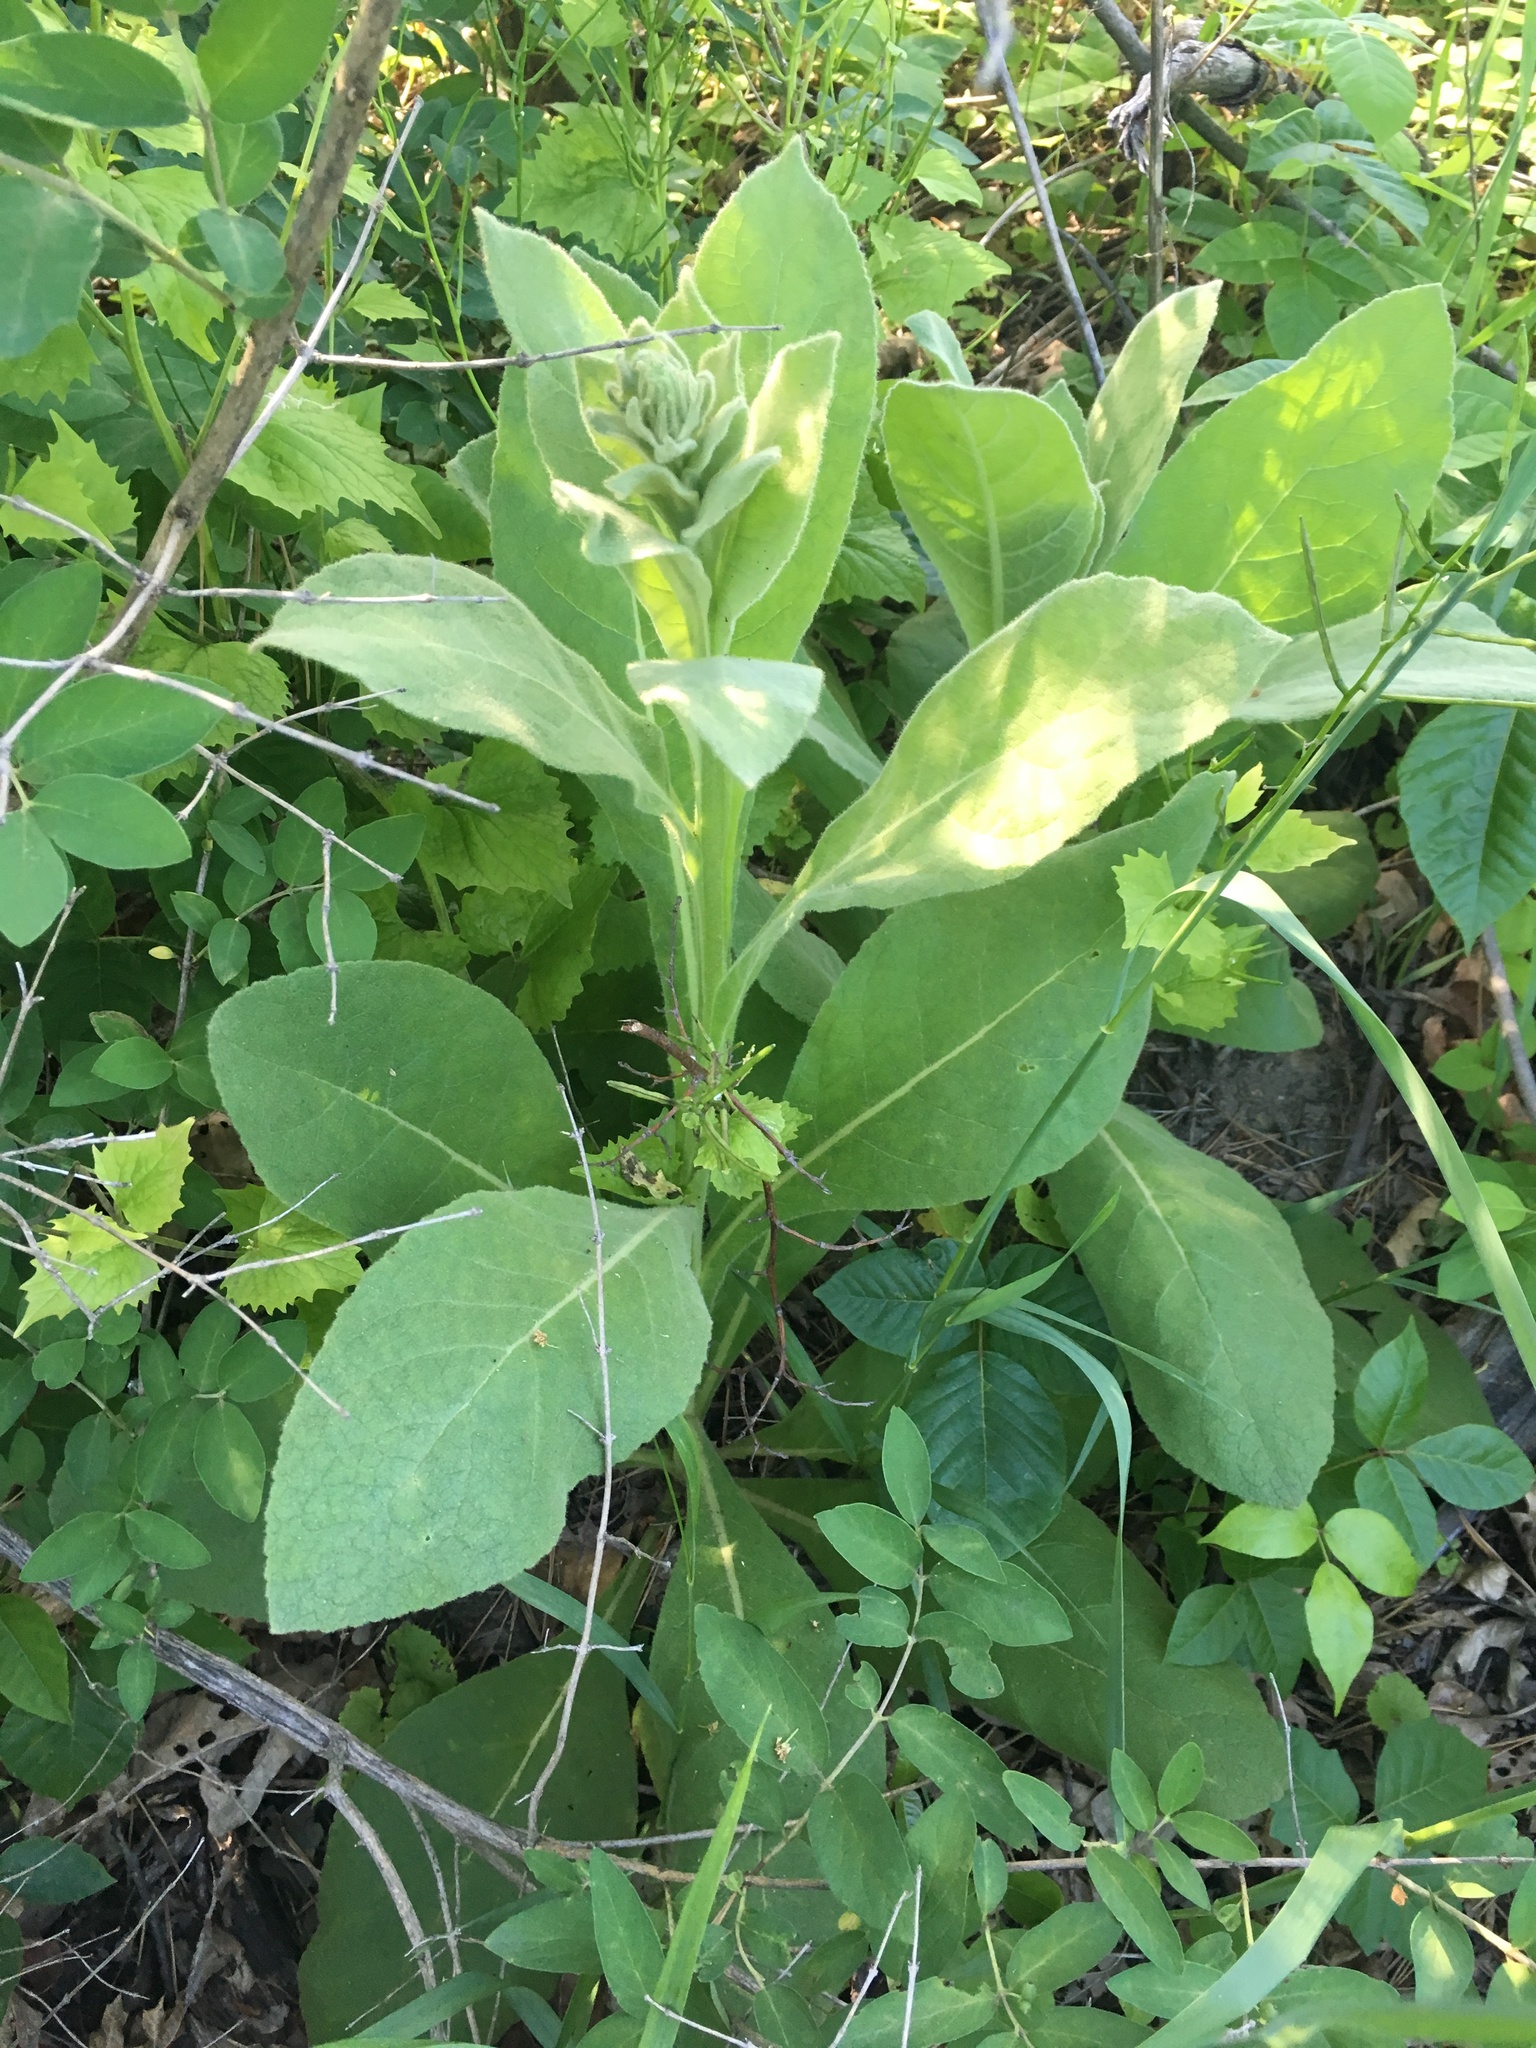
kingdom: Plantae
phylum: Tracheophyta
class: Magnoliopsida
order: Lamiales
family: Scrophulariaceae
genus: Verbascum
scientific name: Verbascum thapsus
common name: Common mullein
